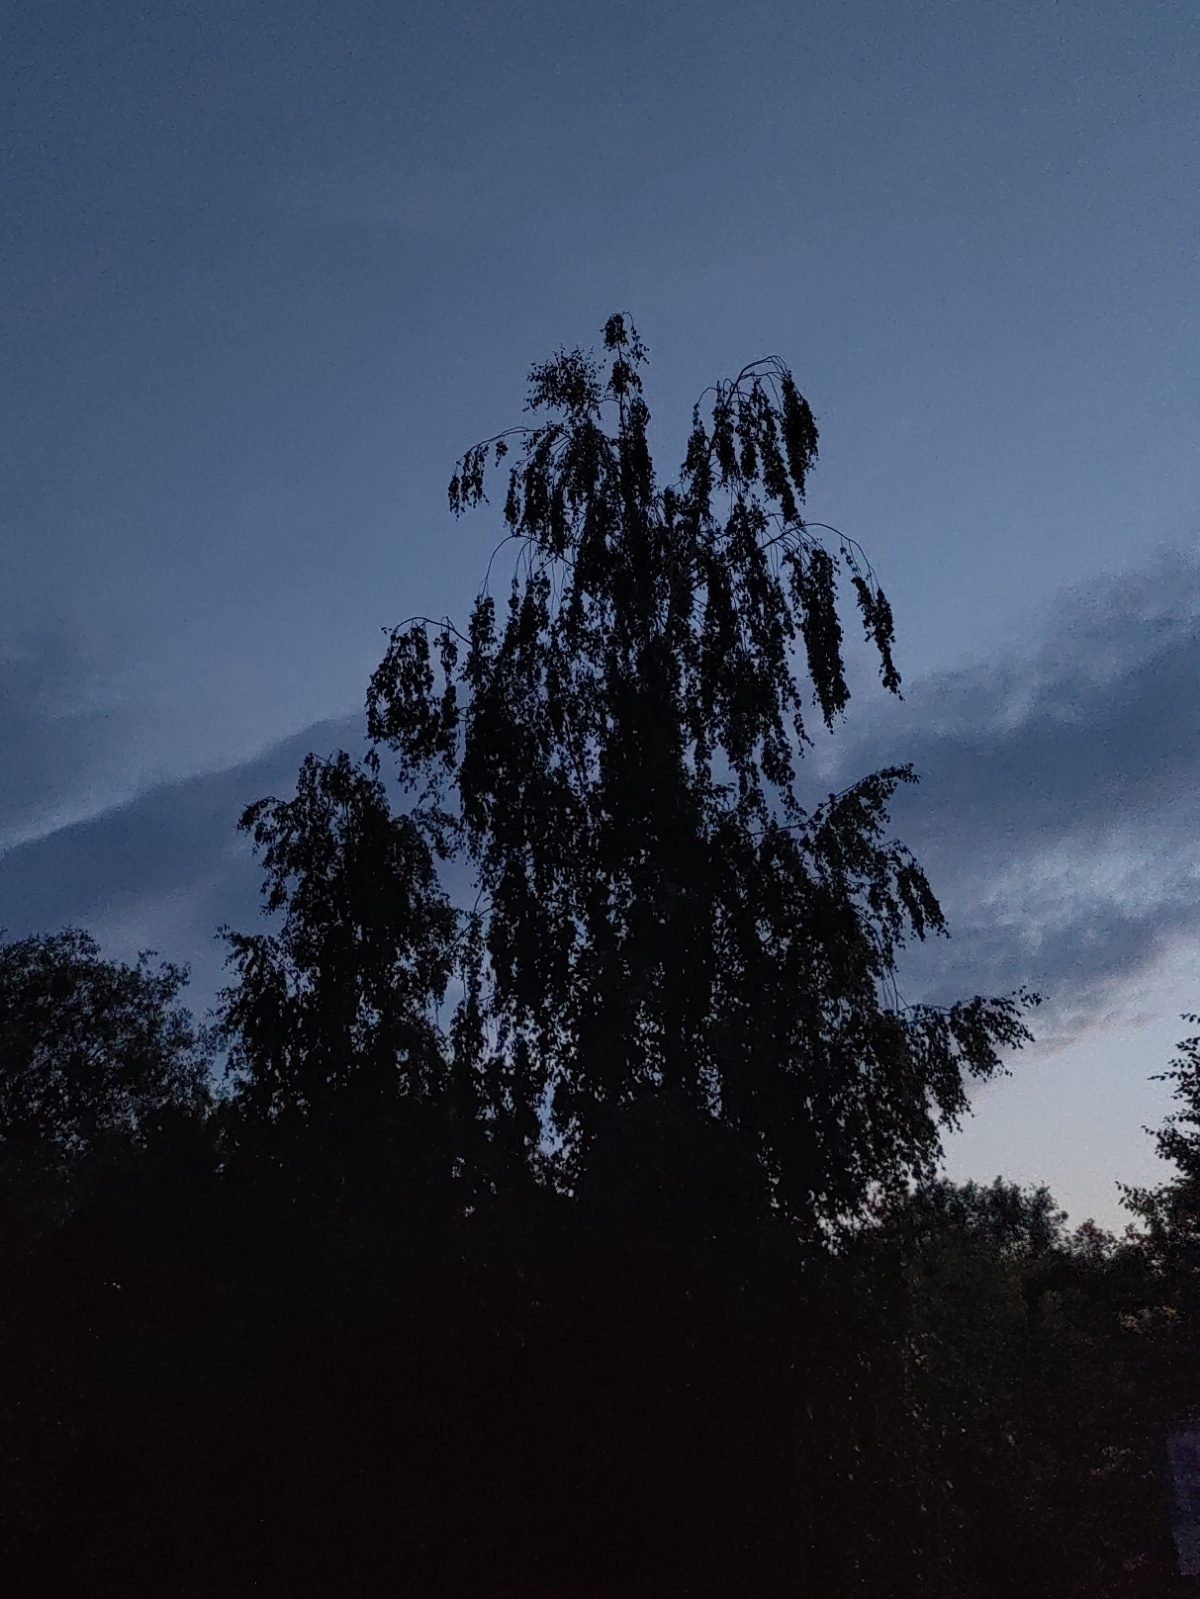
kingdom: Animalia
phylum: Chordata
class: Aves
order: Passeriformes
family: Turdidae
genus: Turdus
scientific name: Turdus philomelos
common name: Song thrush
